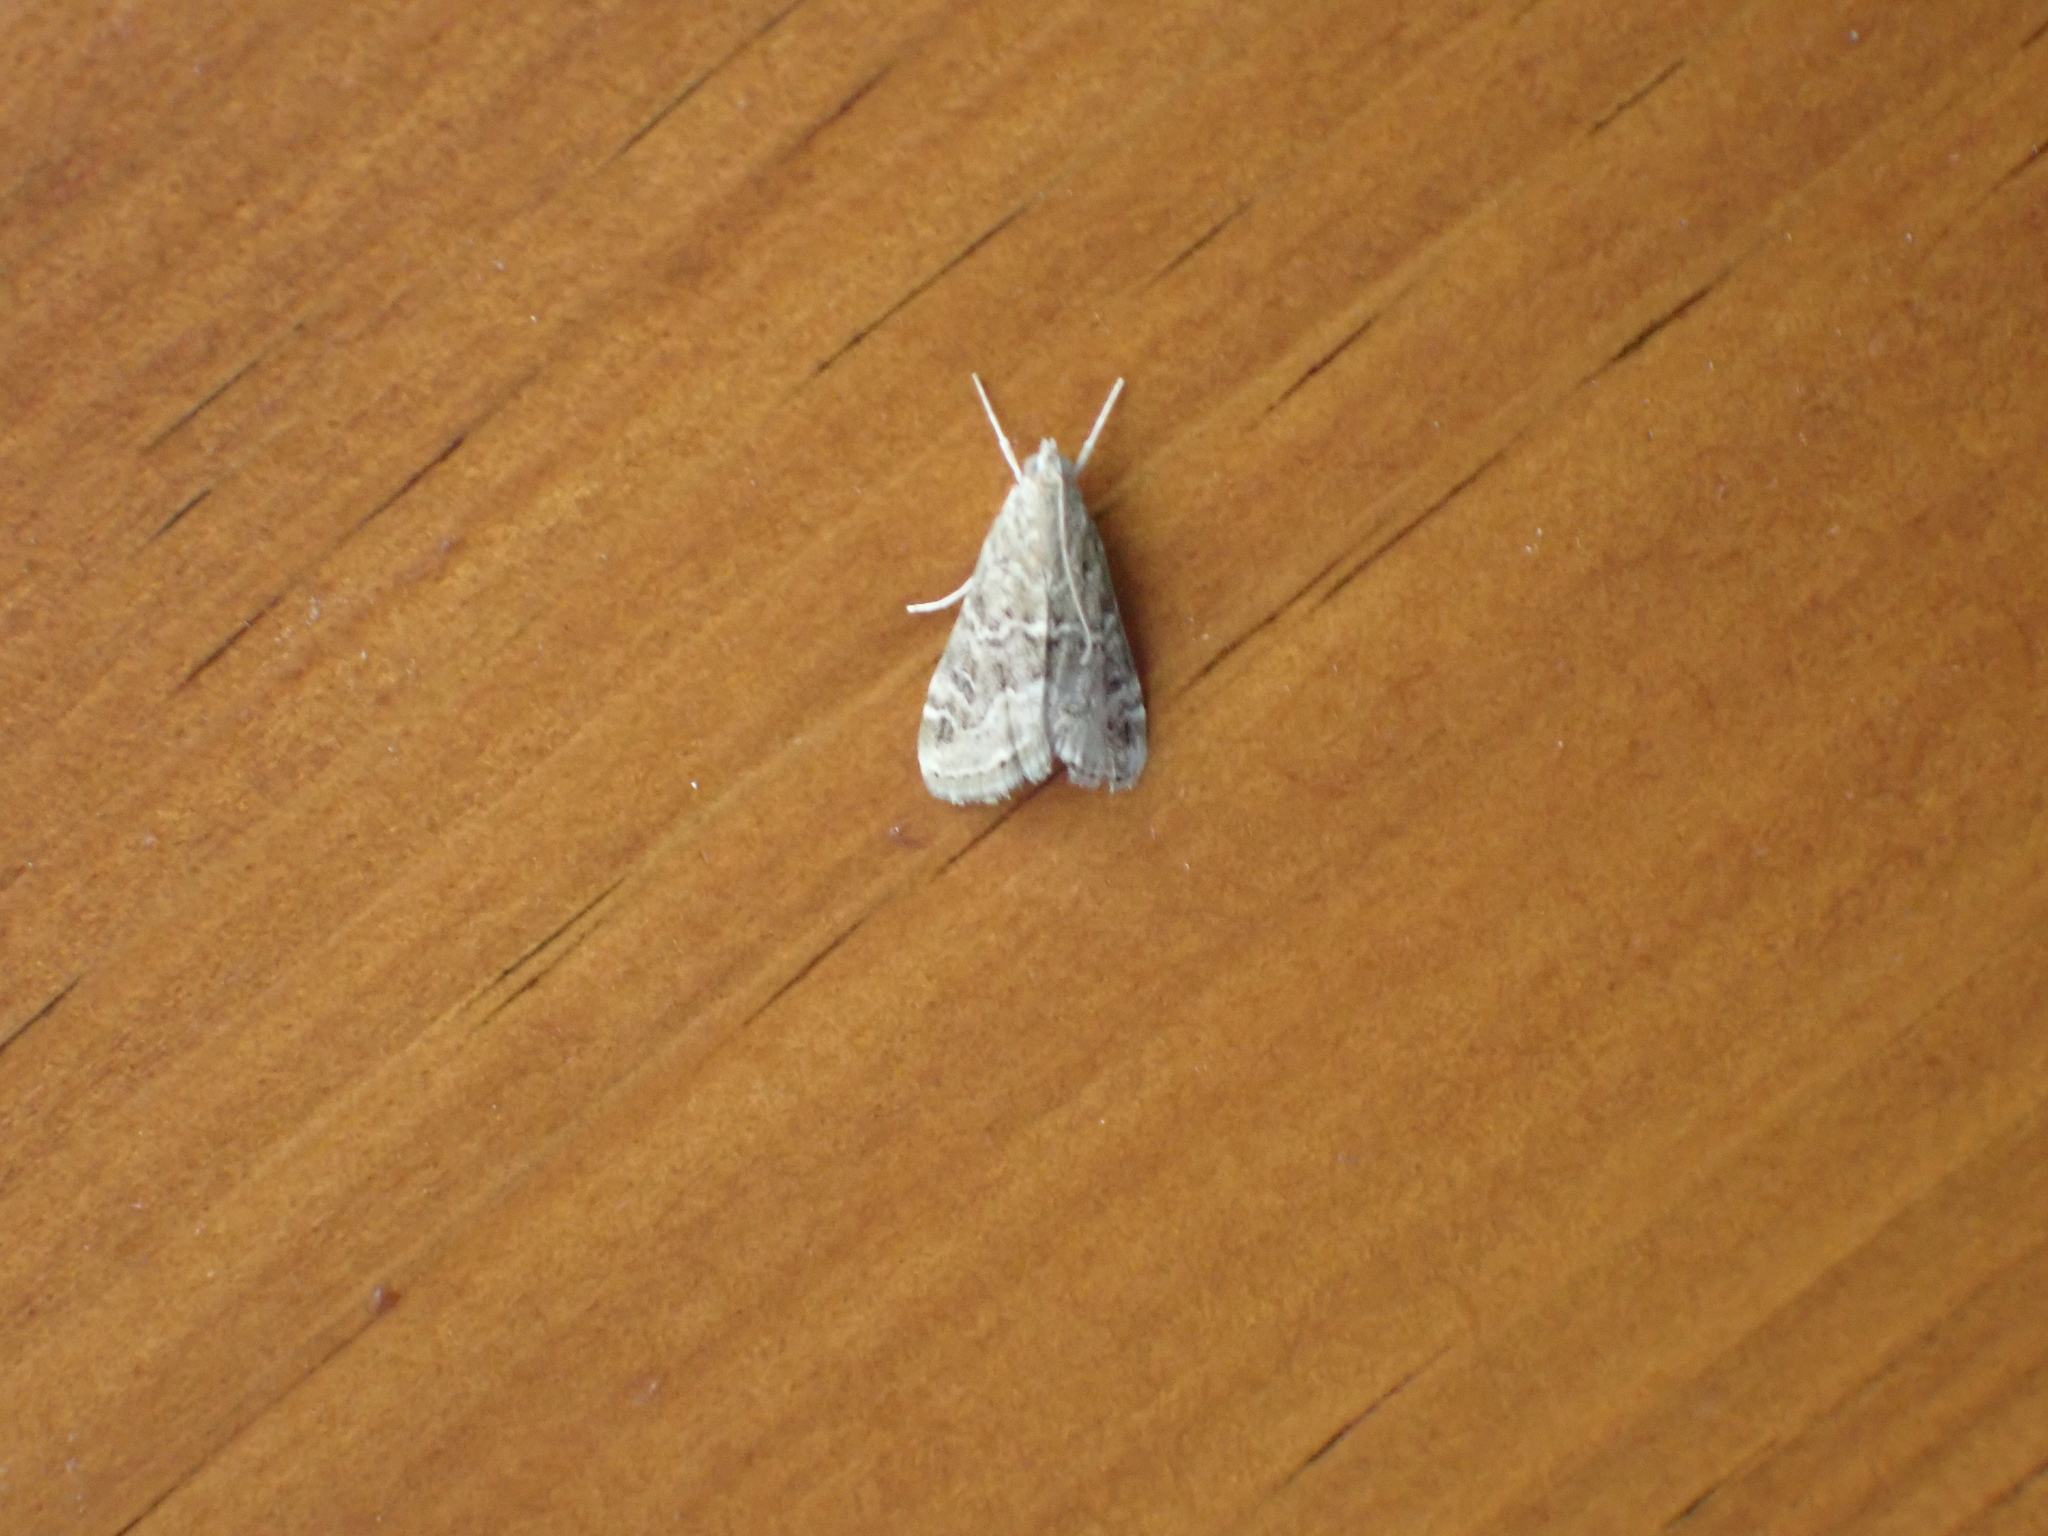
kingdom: Animalia
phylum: Arthropoda
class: Insecta
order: Lepidoptera
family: Crambidae
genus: Hellula
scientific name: Hellula undalis
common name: Cabbage webworm
